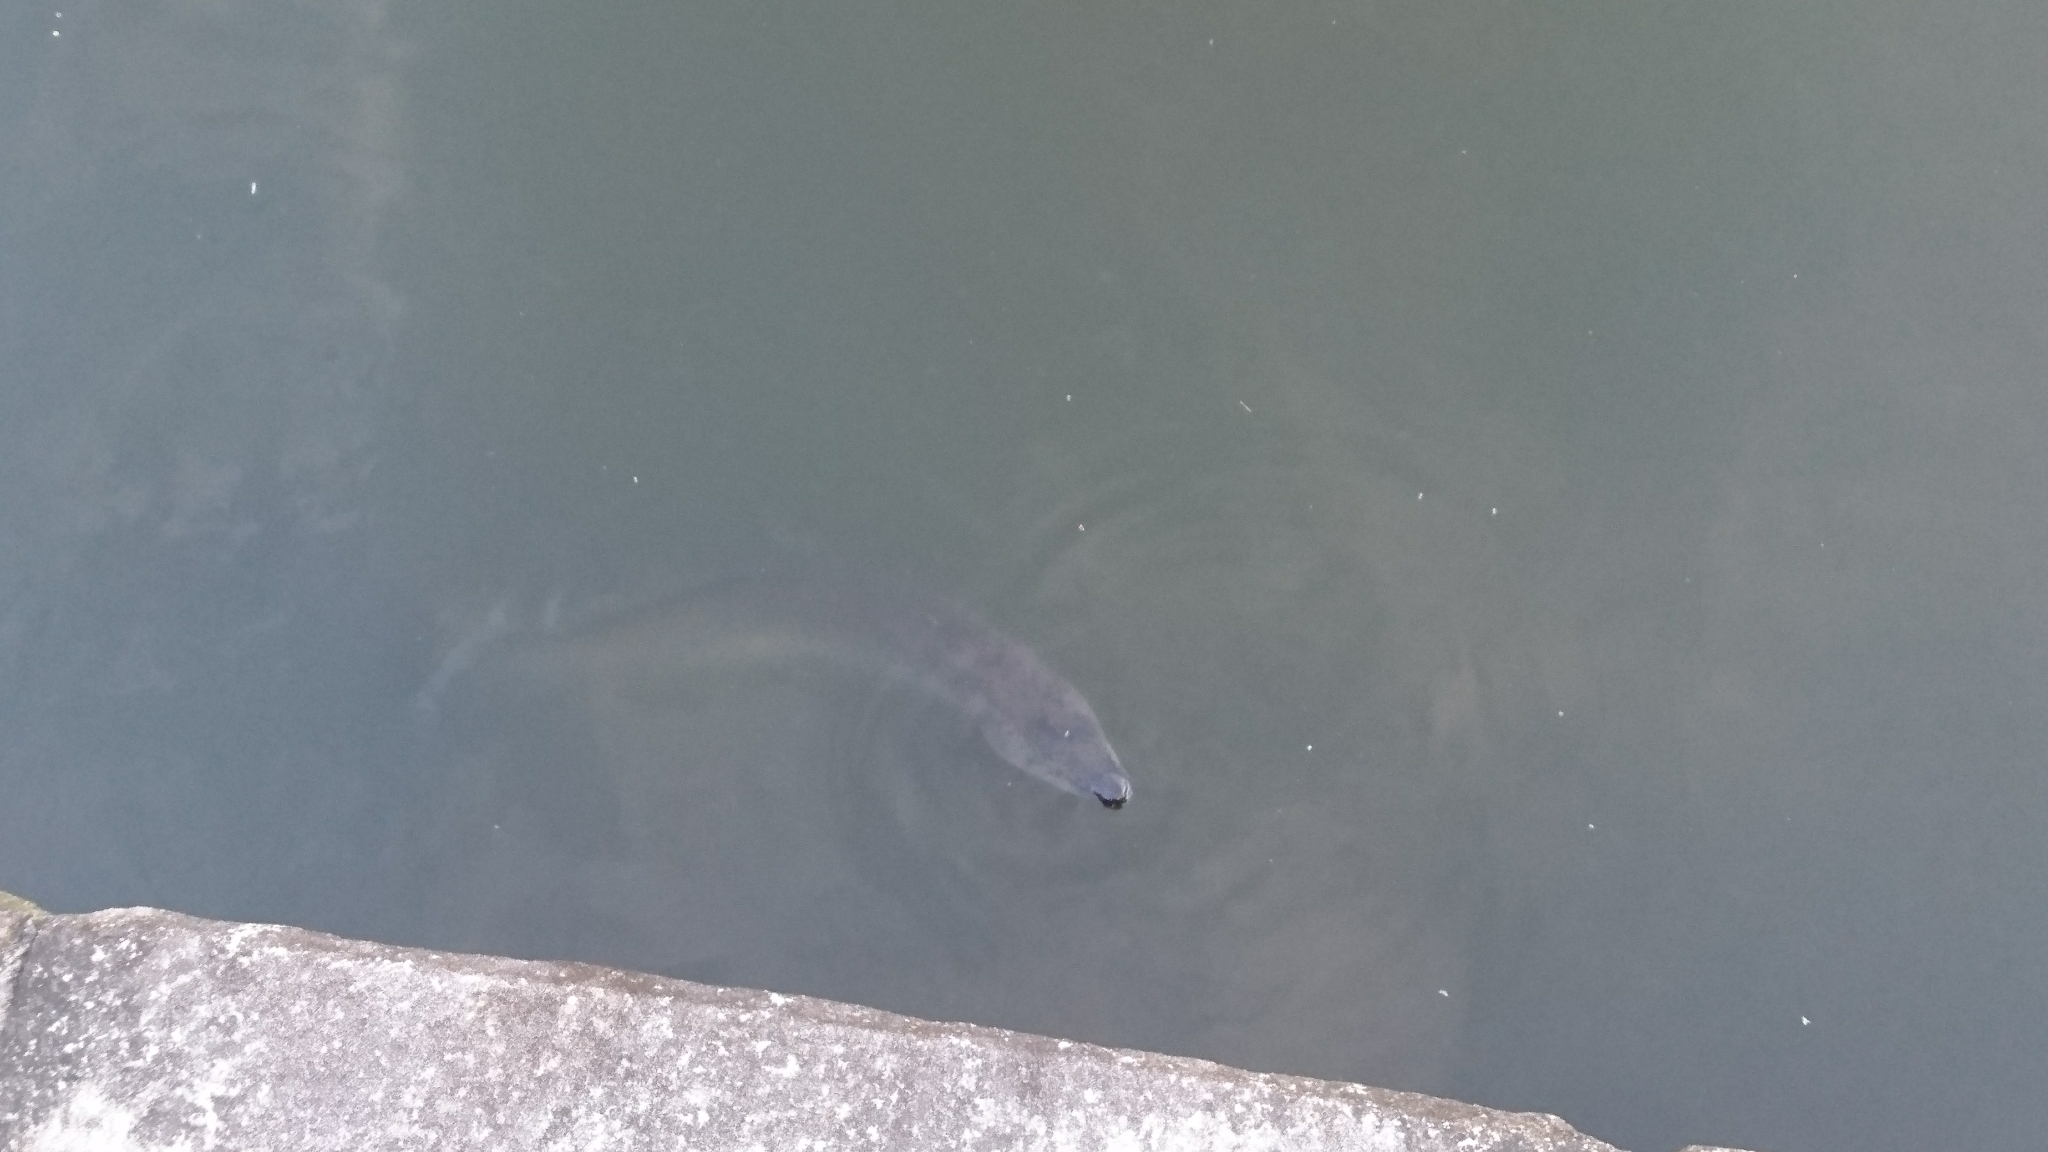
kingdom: Animalia
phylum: Chordata
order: Anguilliformes
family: Anguillidae
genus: Anguilla
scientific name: Anguilla reinhardtii
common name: Longfin eel
